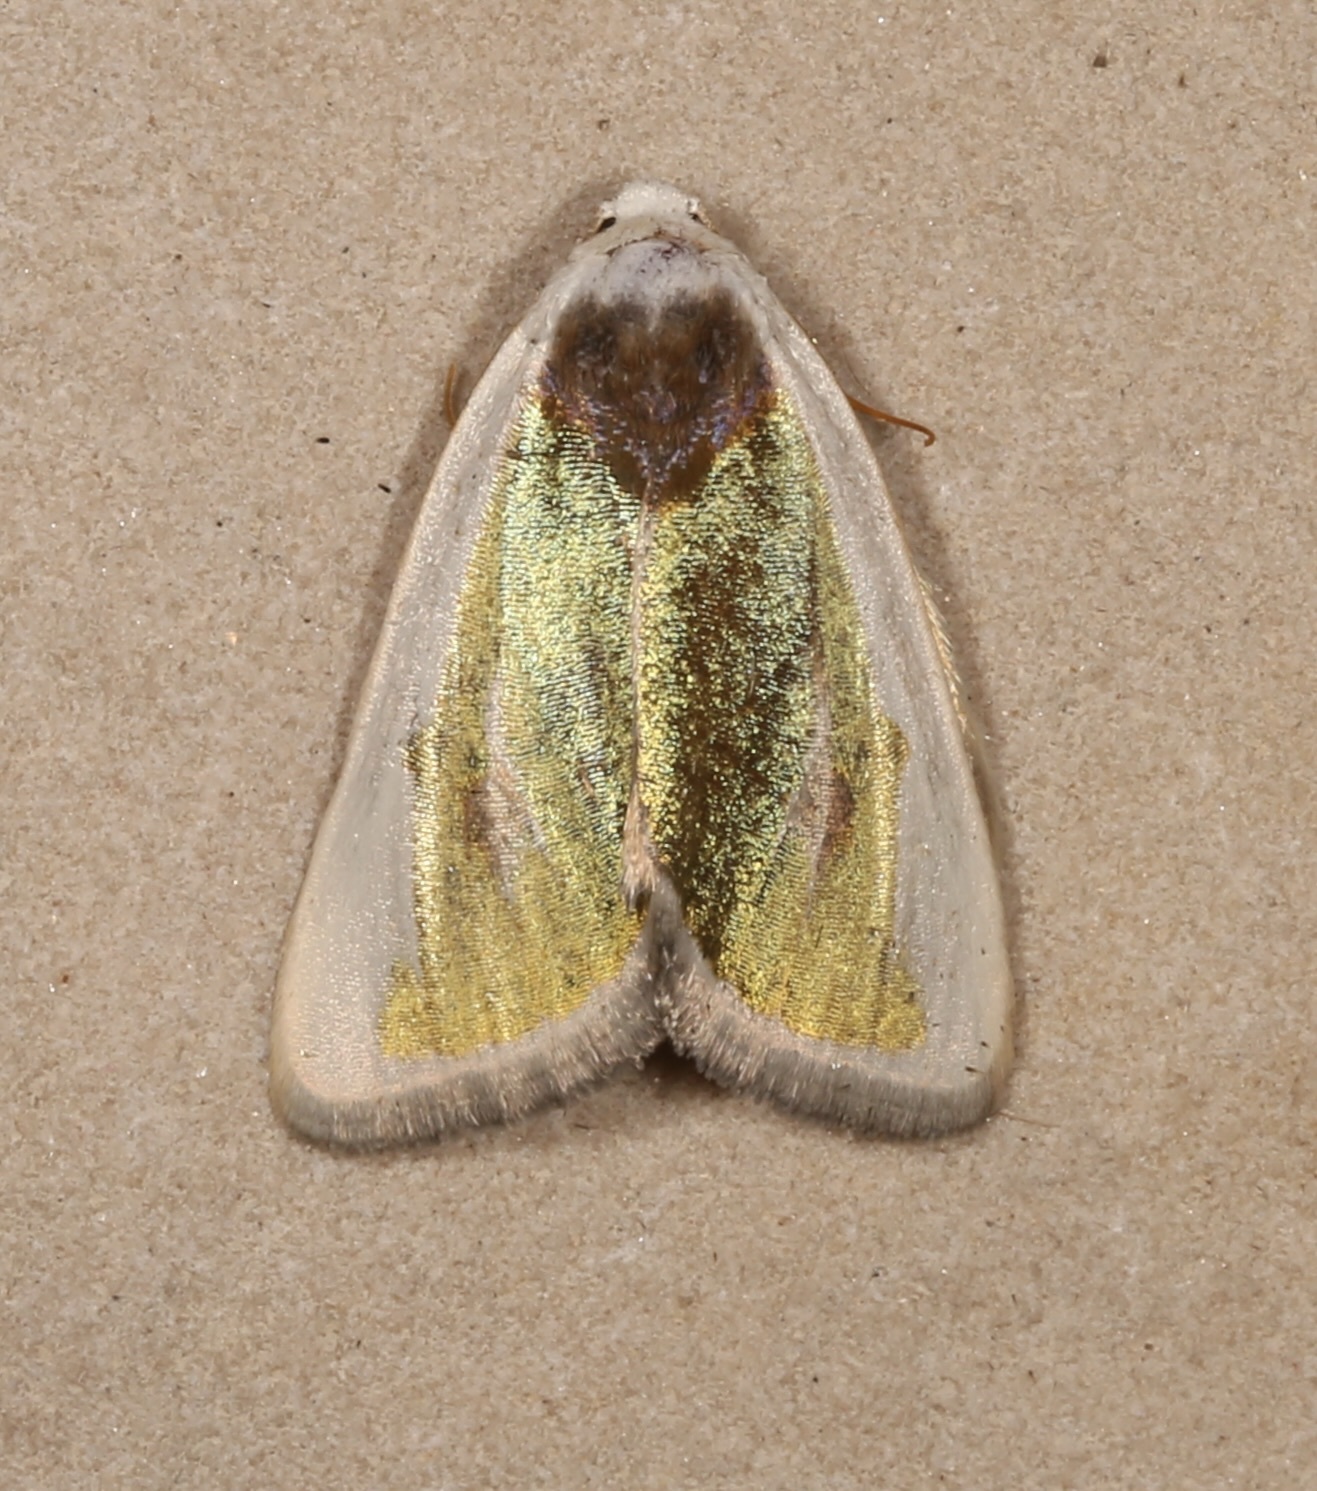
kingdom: Animalia
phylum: Arthropoda
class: Insecta
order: Lepidoptera
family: Noctuidae
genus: Neumoegenia
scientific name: Neumoegenia poetica
